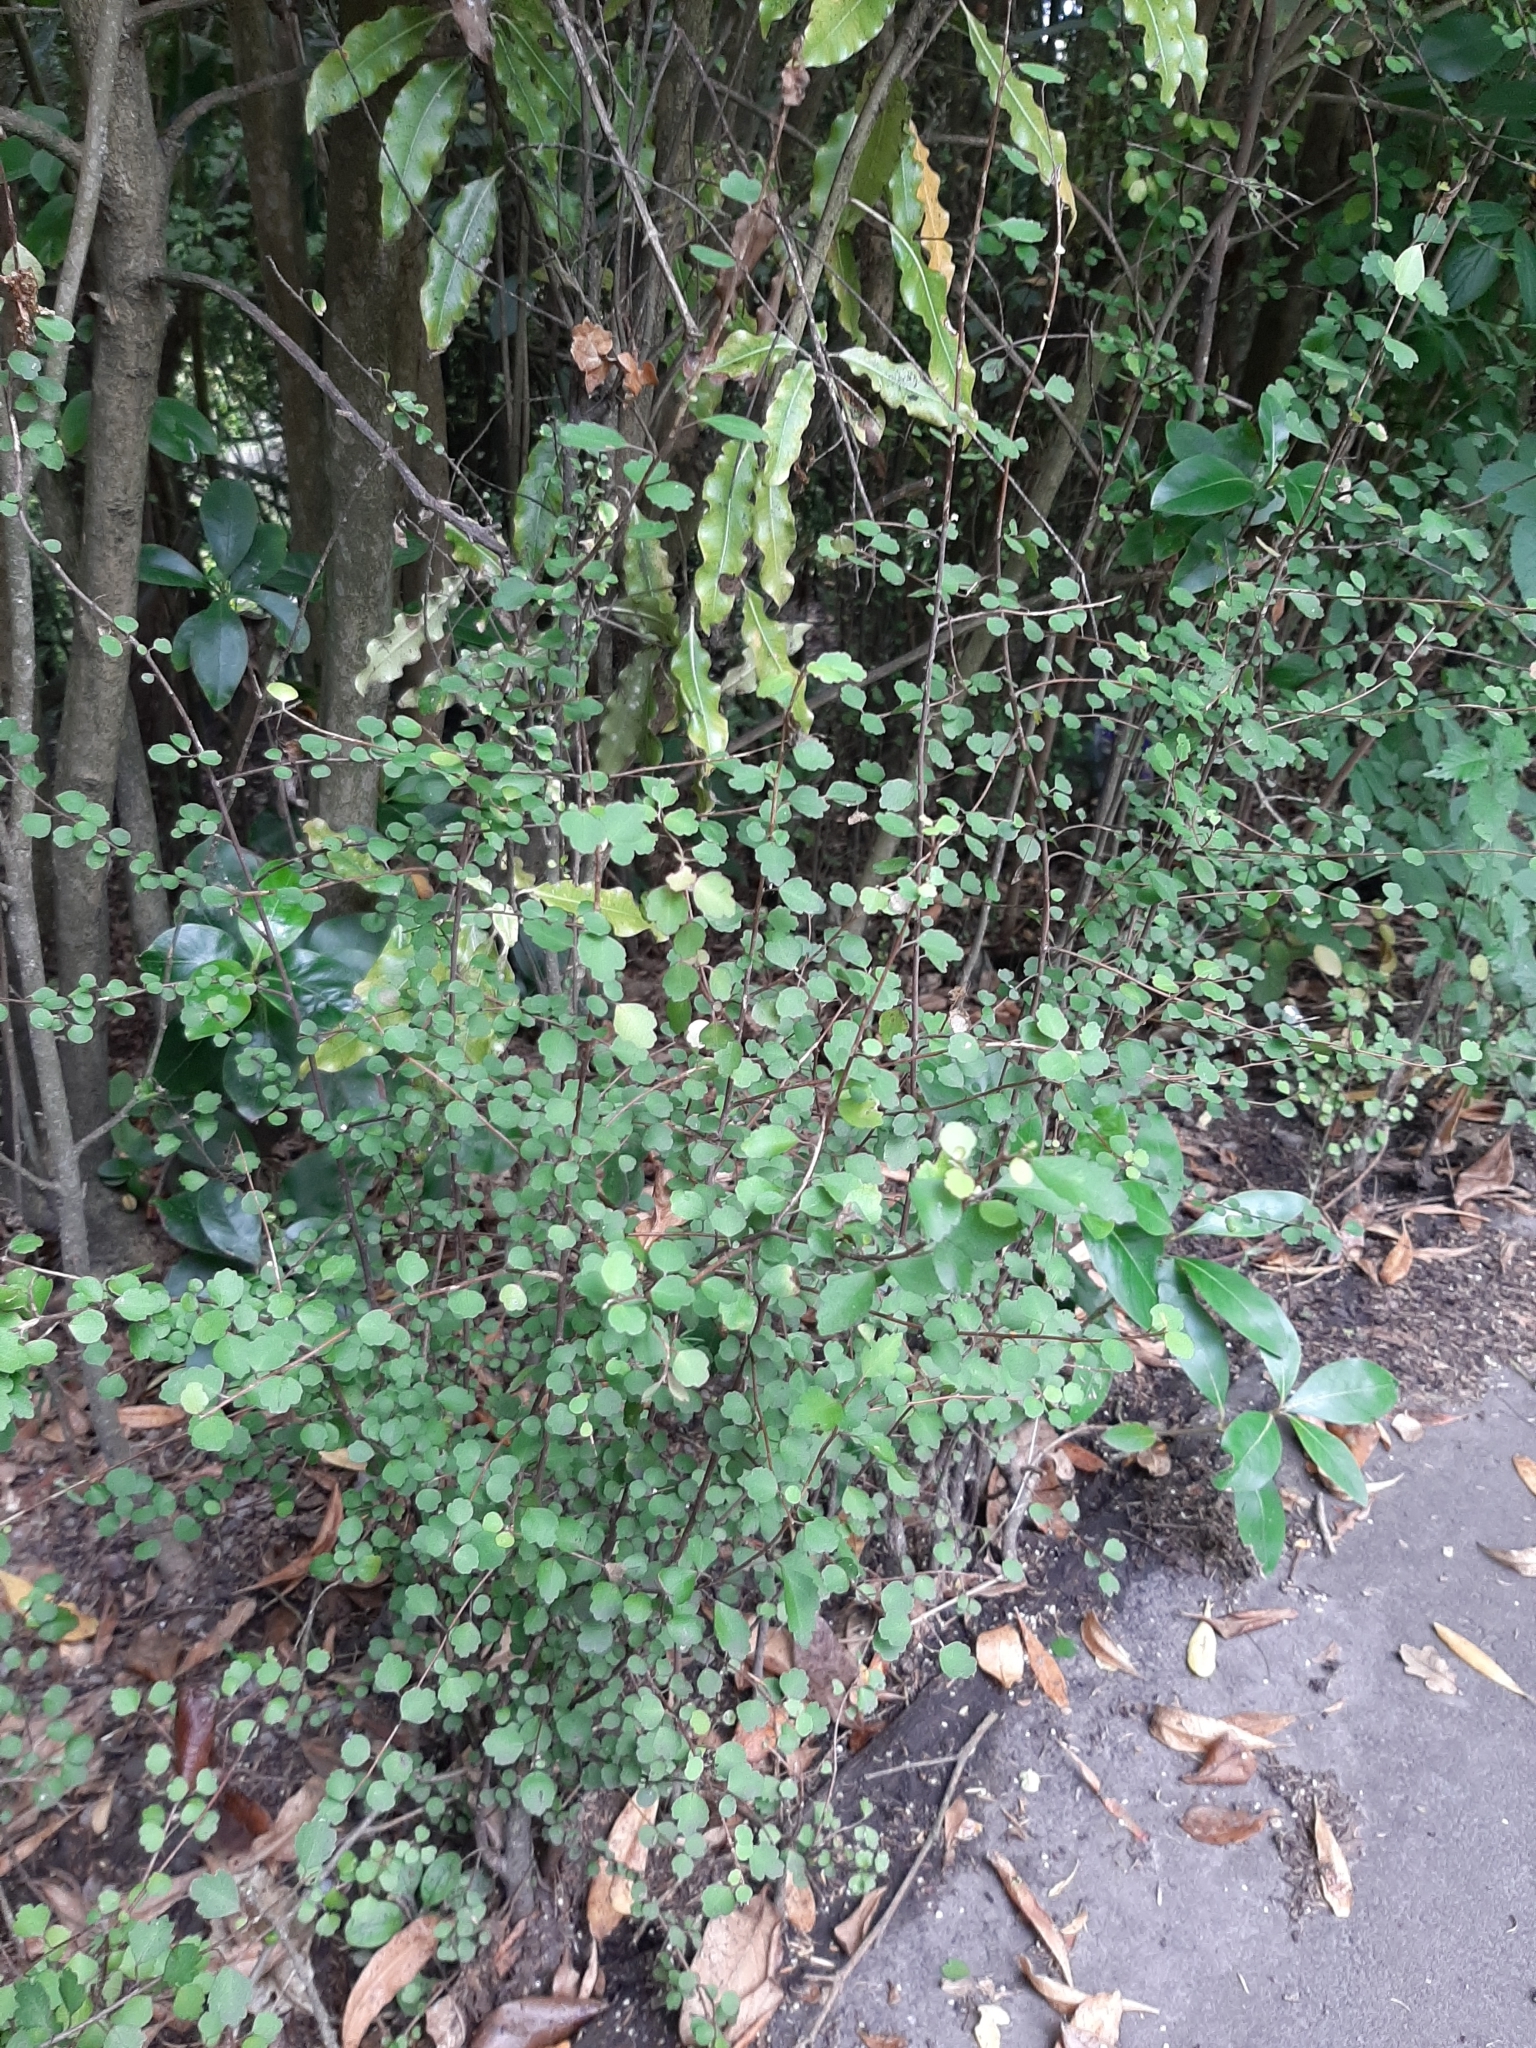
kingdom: Plantae
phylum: Tracheophyta
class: Magnoliopsida
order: Malvales
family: Malvaceae
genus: Hoheria
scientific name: Hoheria angustifolia
